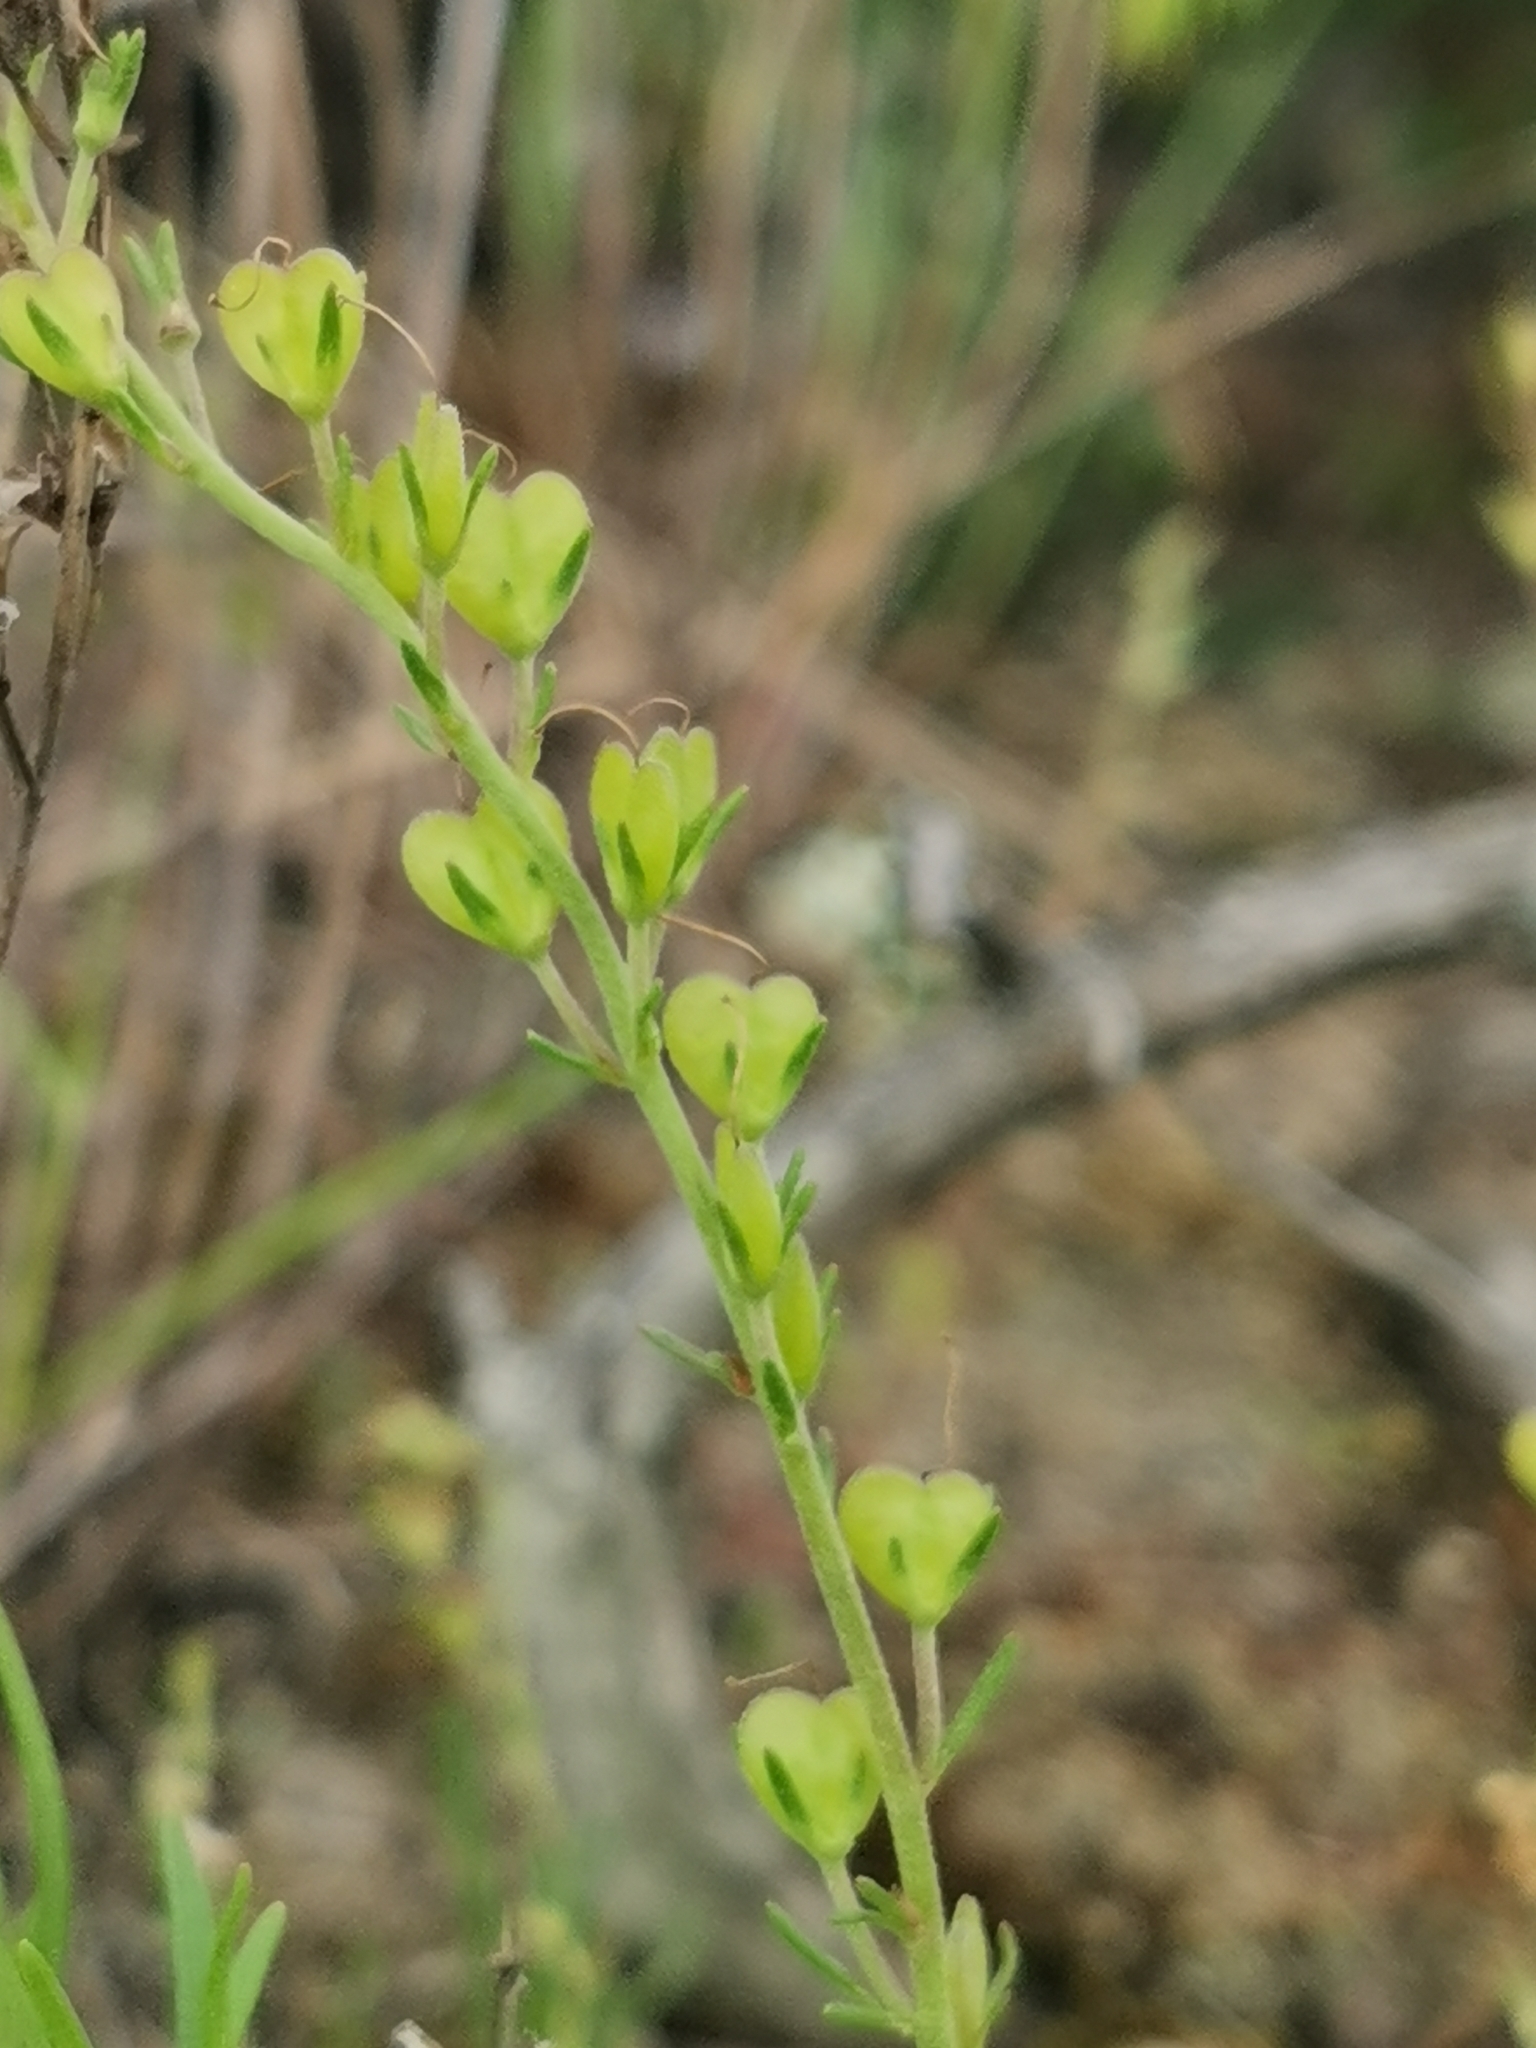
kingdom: Plantae
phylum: Tracheophyta
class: Magnoliopsida
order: Lamiales
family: Plantaginaceae
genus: Veronica
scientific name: Veronica multifida
